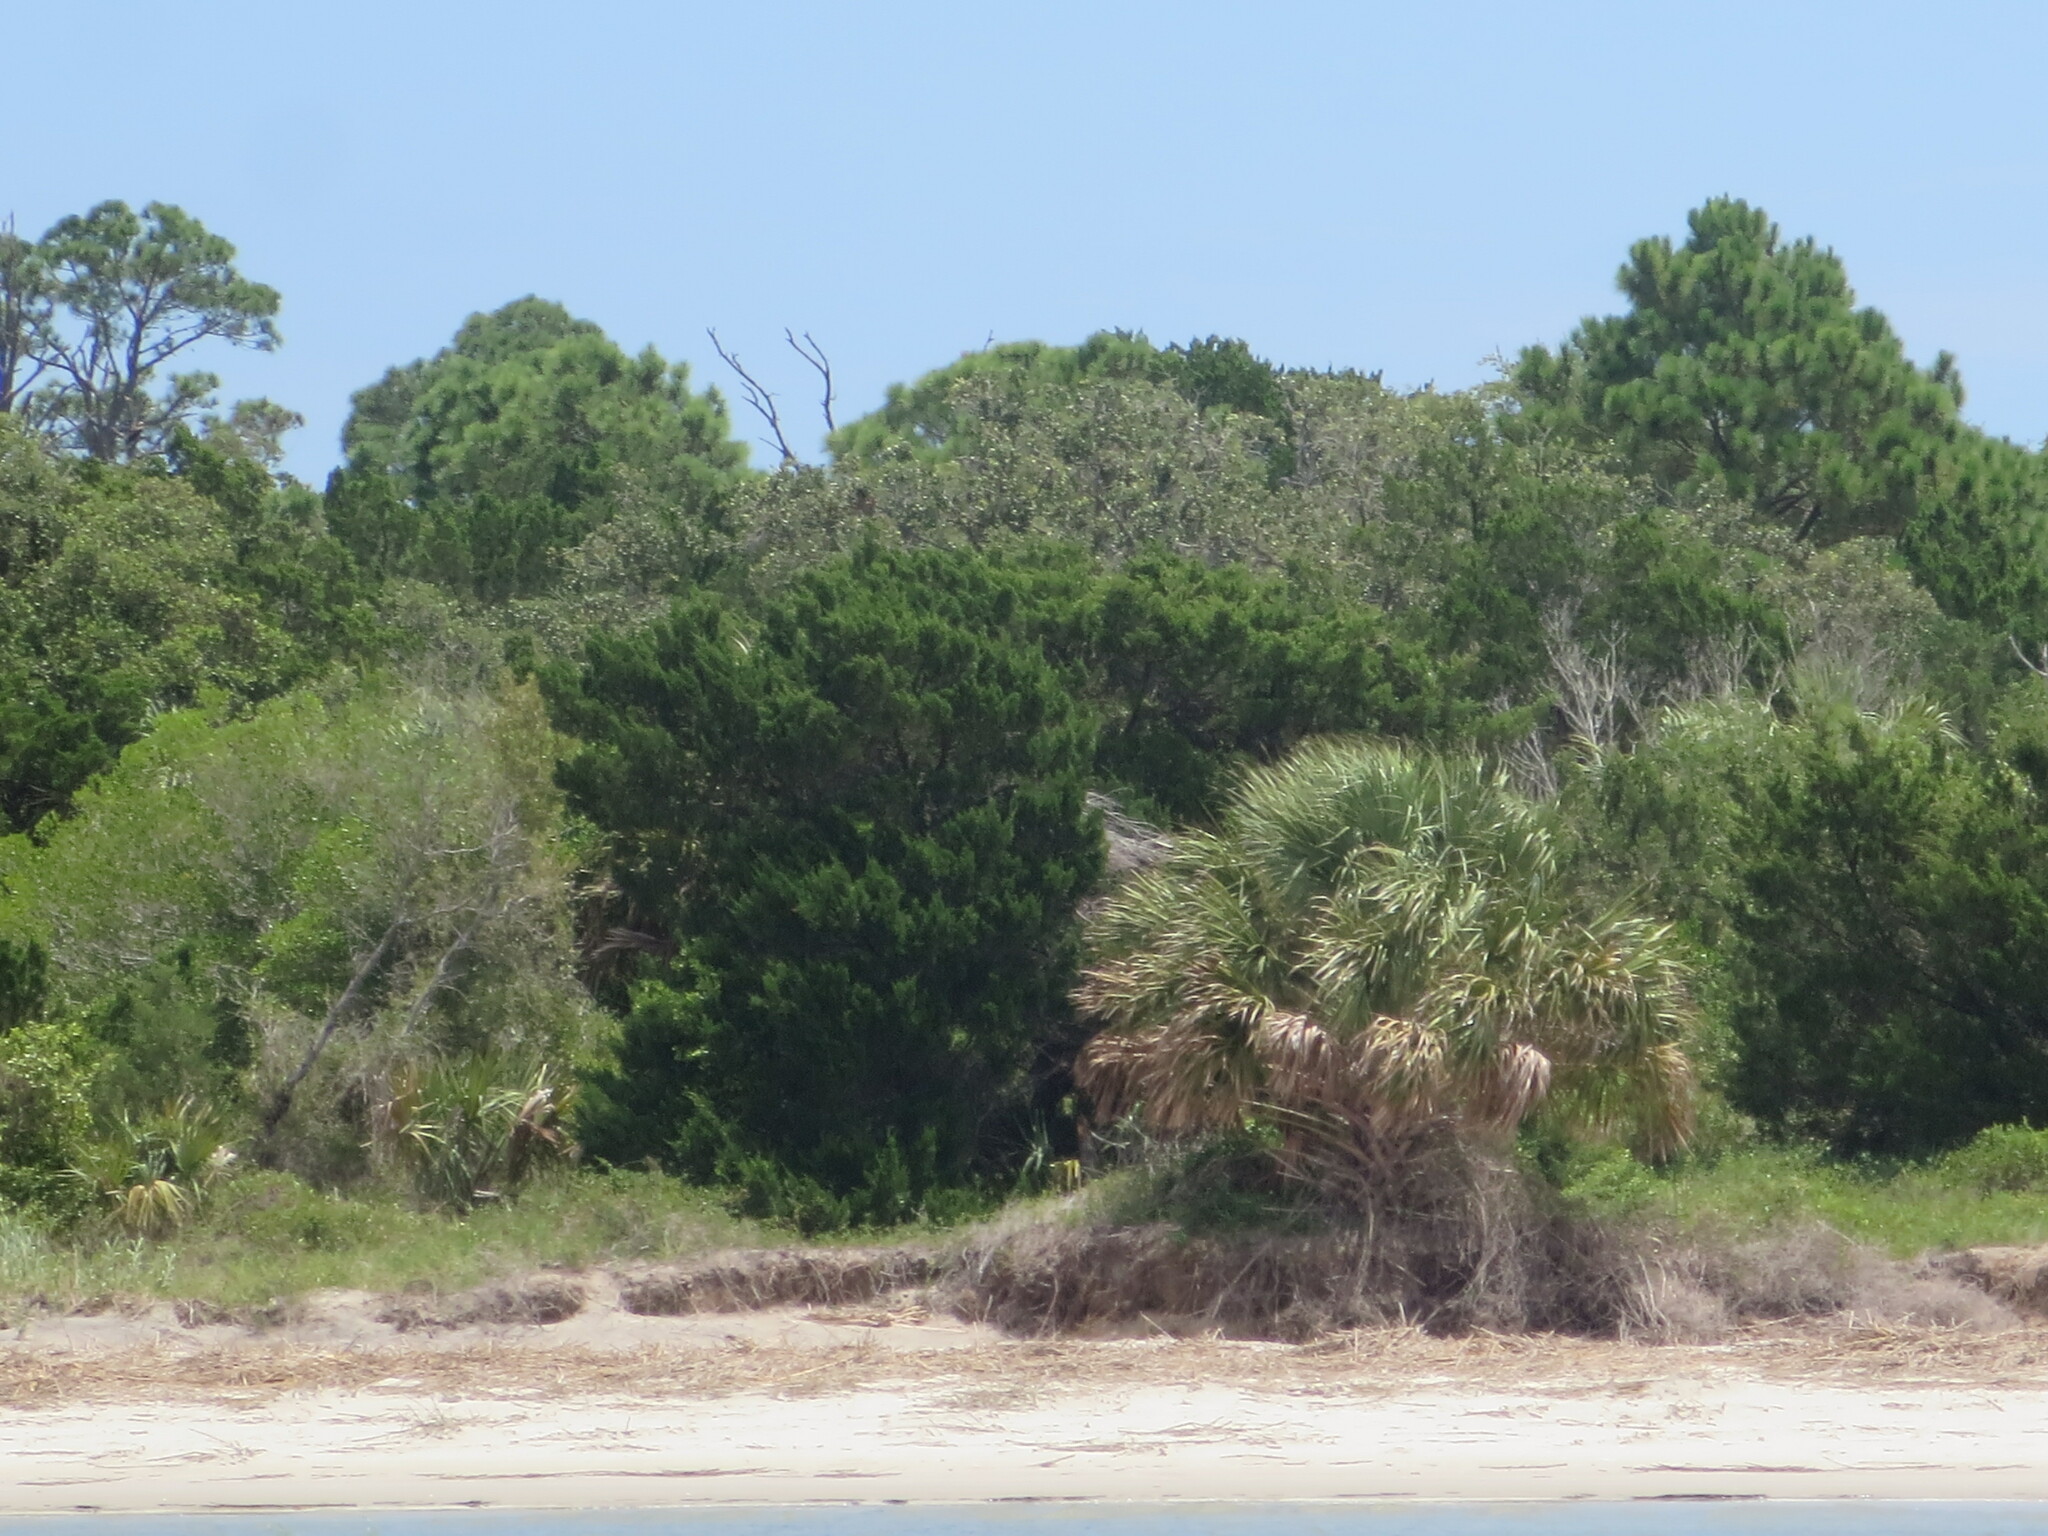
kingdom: Plantae
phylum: Tracheophyta
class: Liliopsida
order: Arecales
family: Arecaceae
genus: Sabal
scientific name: Sabal palmetto
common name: Blue palmetto
